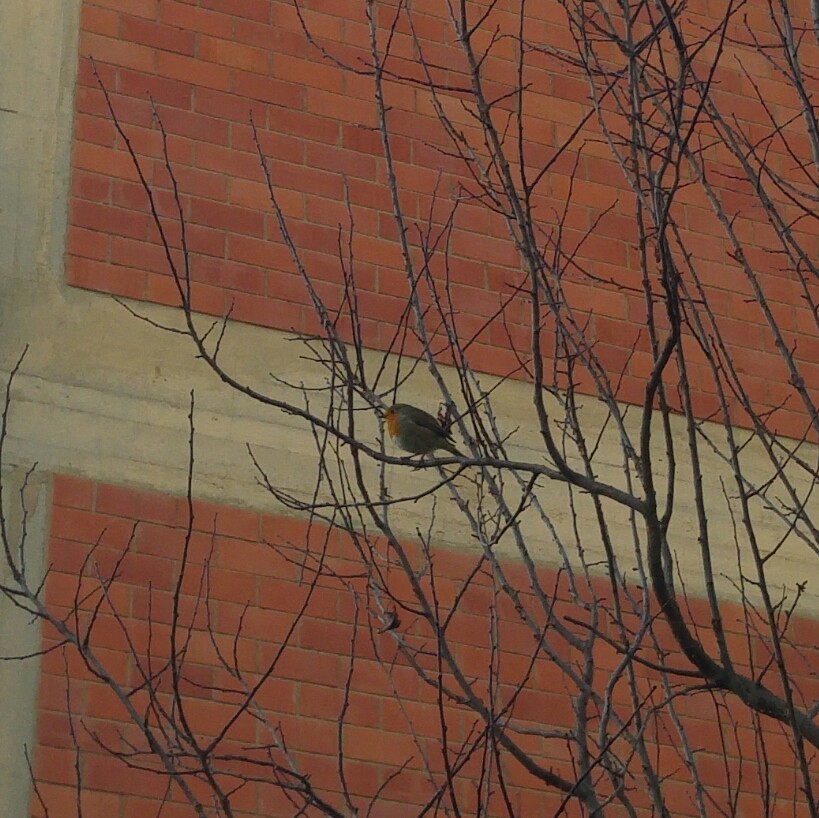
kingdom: Animalia
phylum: Chordata
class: Aves
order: Passeriformes
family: Muscicapidae
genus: Erithacus
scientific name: Erithacus rubecula
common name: European robin
